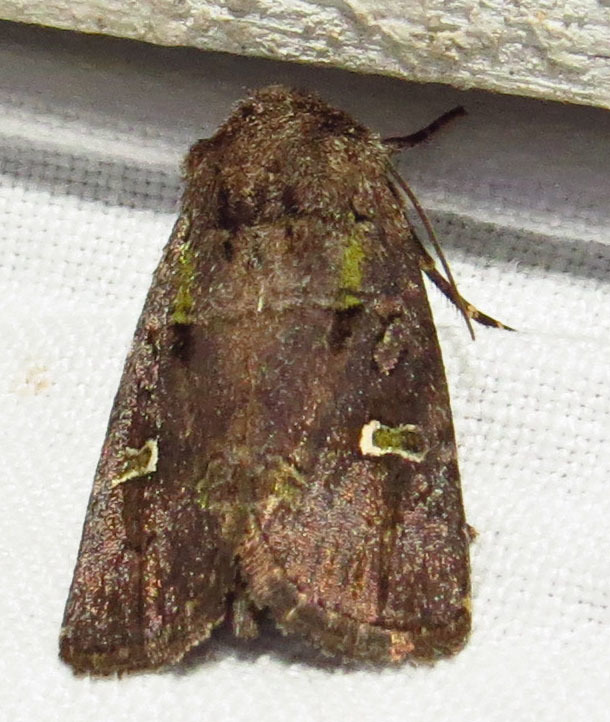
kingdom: Animalia
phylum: Arthropoda
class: Insecta
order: Lepidoptera
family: Noctuidae
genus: Lacinipolia
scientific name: Lacinipolia renigera
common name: Kidney-spotted minor
